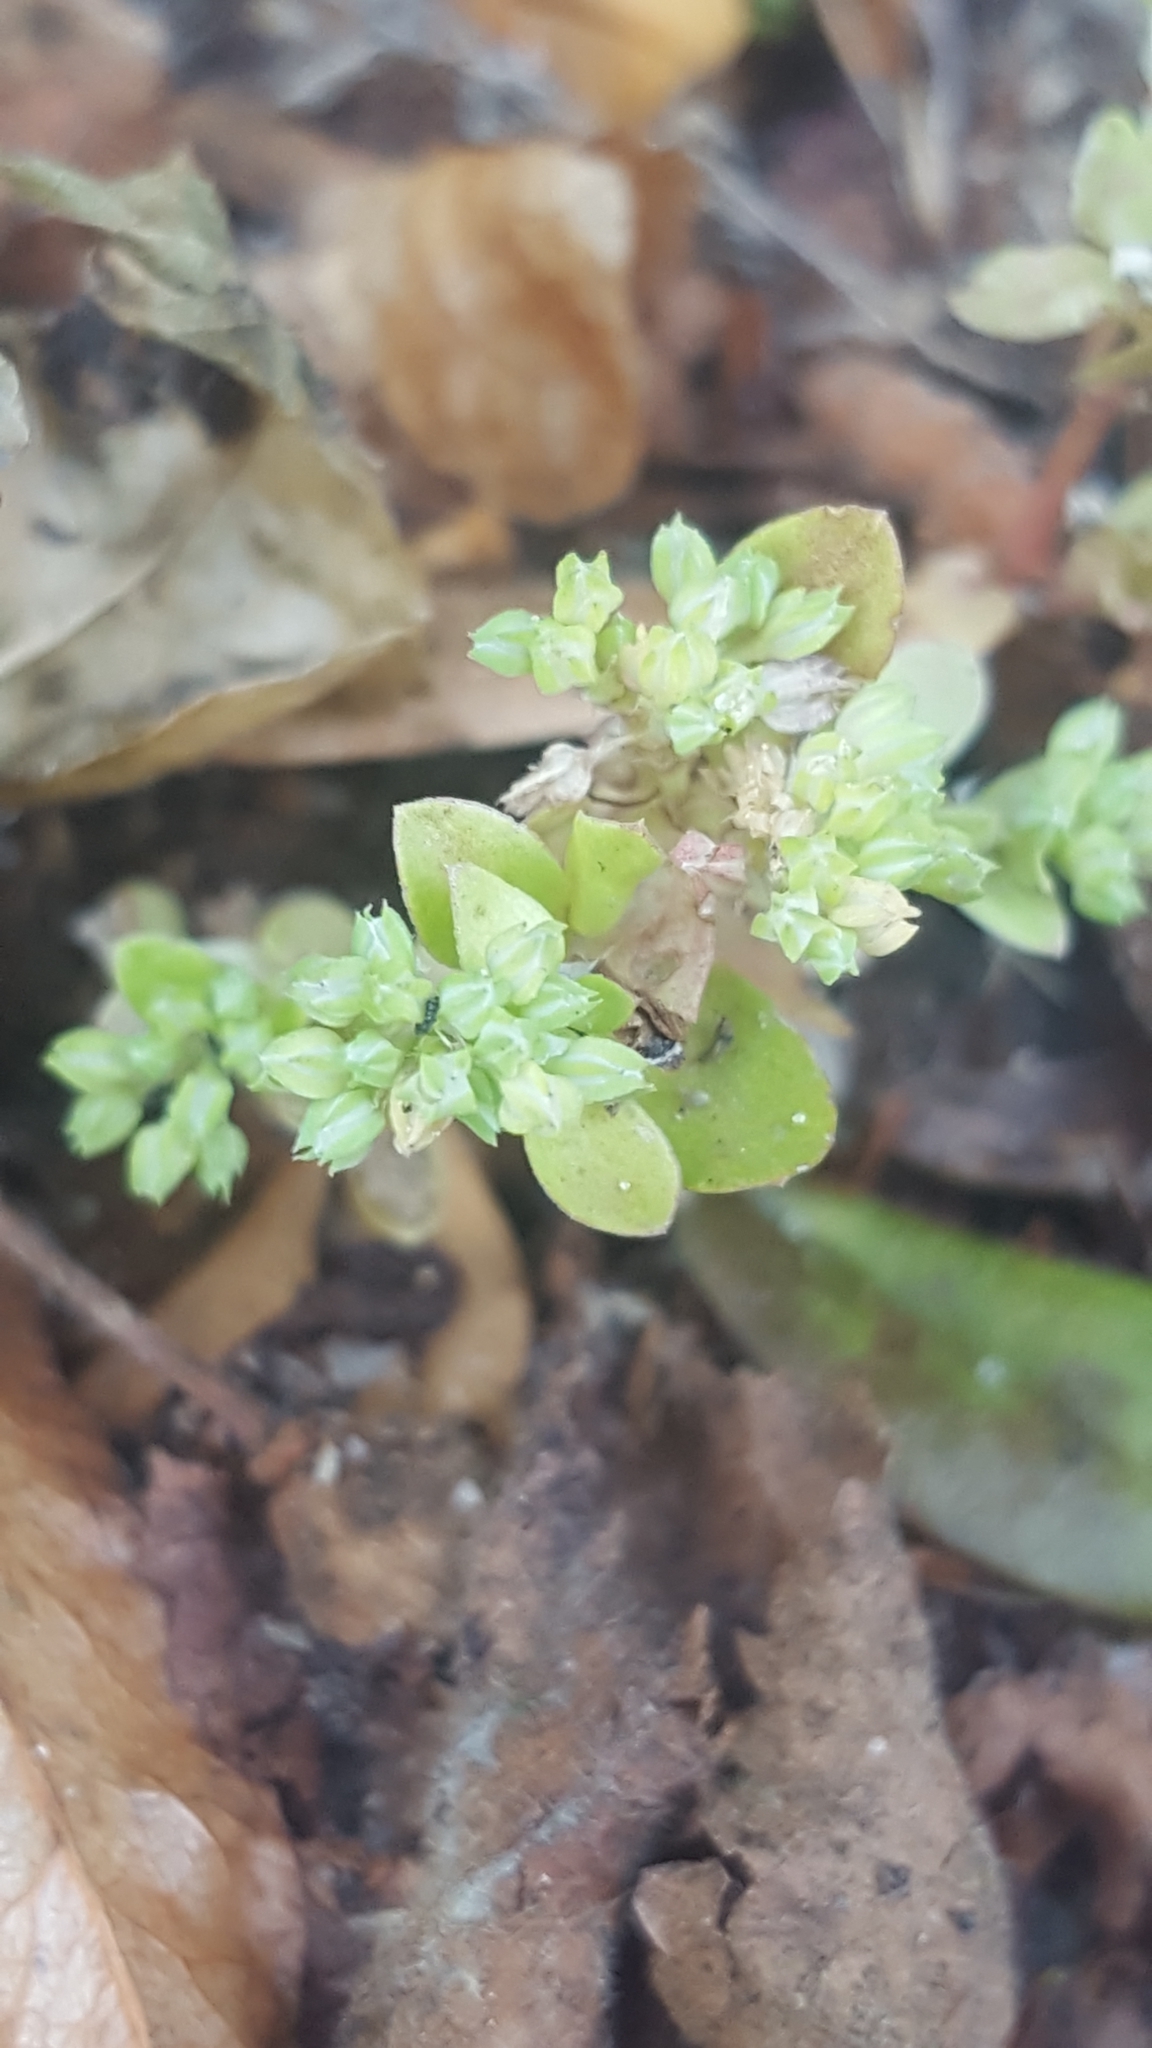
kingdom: Plantae
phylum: Tracheophyta
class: Magnoliopsida
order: Caryophyllales
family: Caryophyllaceae
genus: Polycarpon
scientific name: Polycarpon tetraphyllum
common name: Four-leaved all-seed
